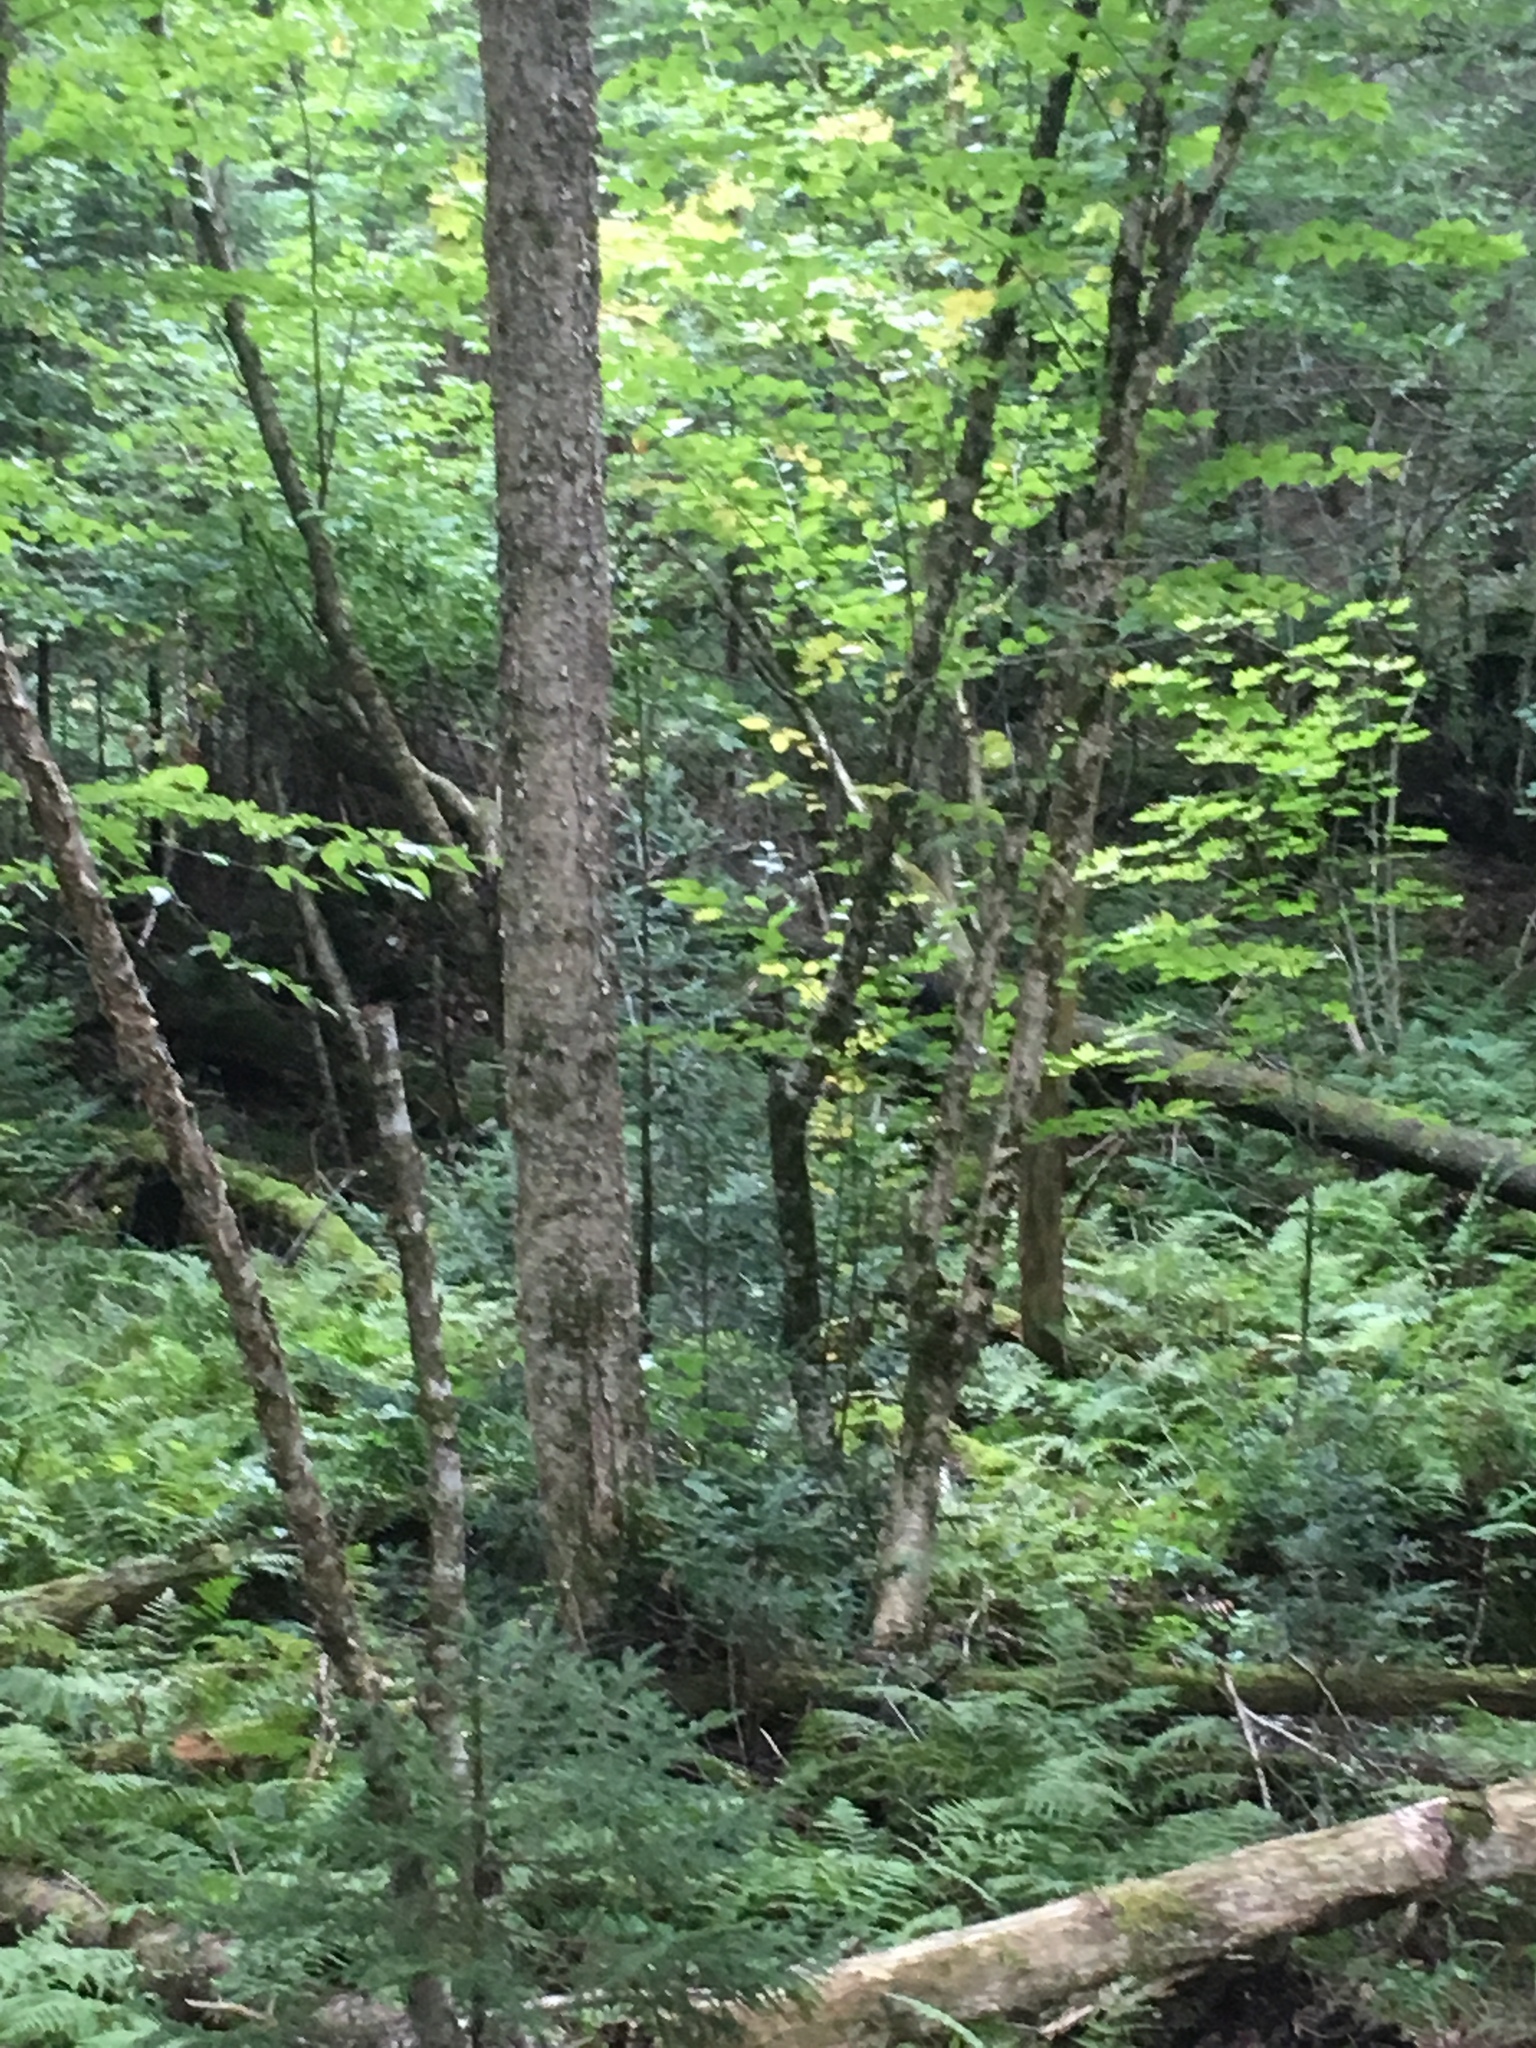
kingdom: Plantae
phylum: Tracheophyta
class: Magnoliopsida
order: Fagales
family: Betulaceae
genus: Betula
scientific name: Betula alleghaniensis
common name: Yellow birch
